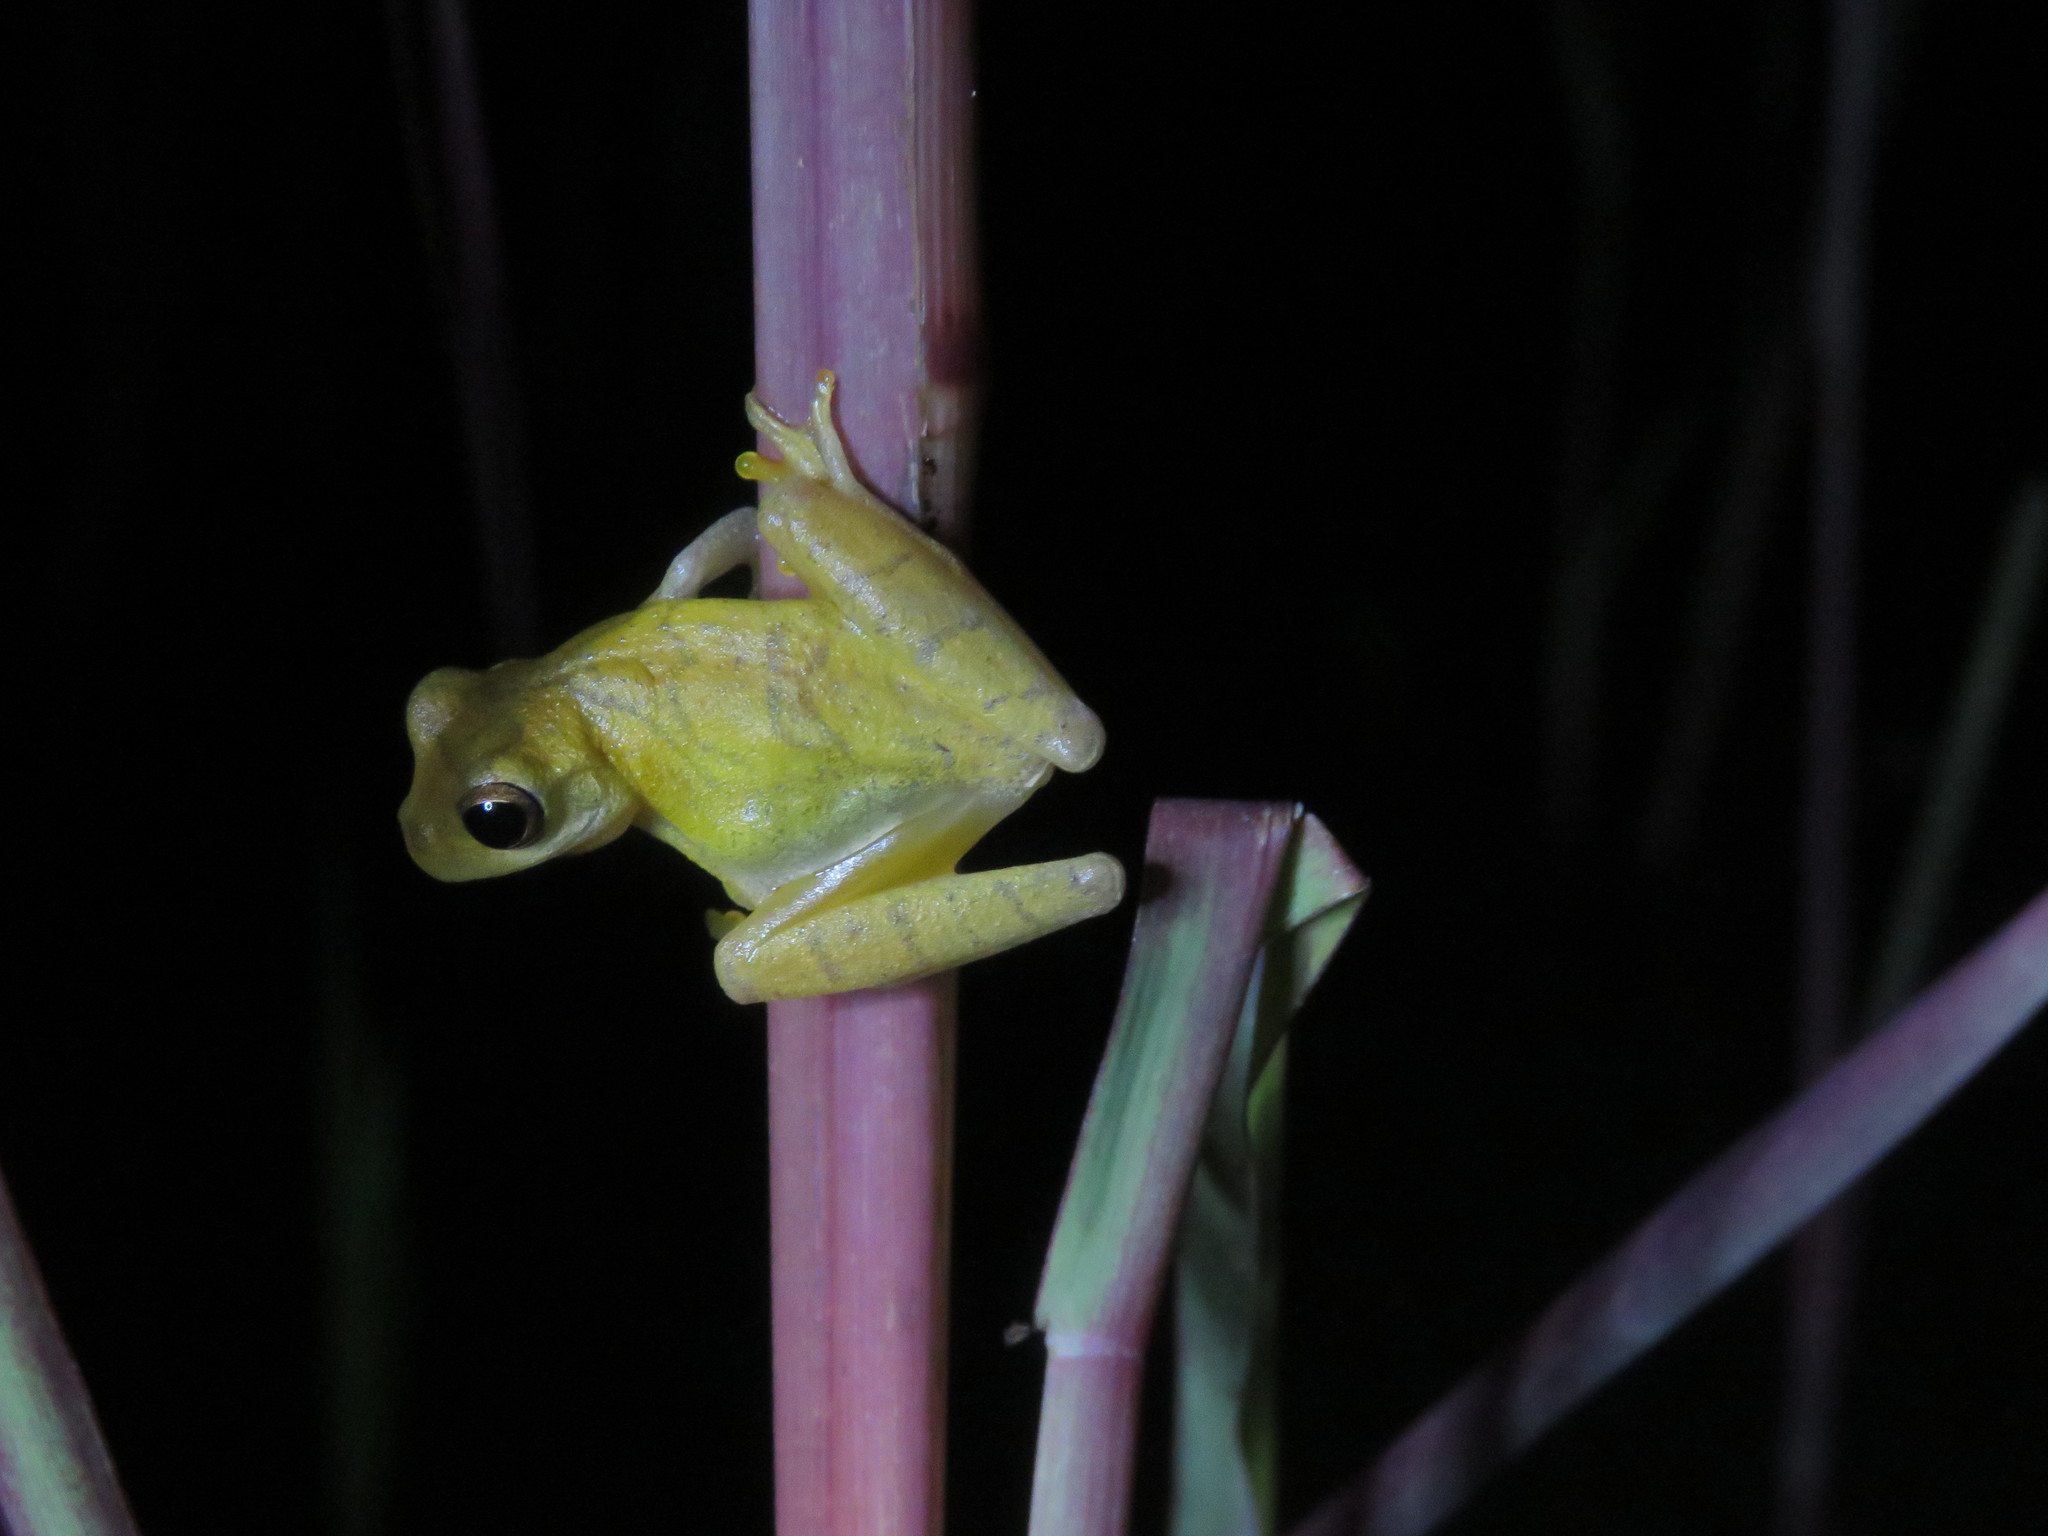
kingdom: Animalia
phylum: Chordata
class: Amphibia
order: Anura
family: Hylidae
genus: Dendropsophus
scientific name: Dendropsophus minutus
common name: Lesser treefrog
